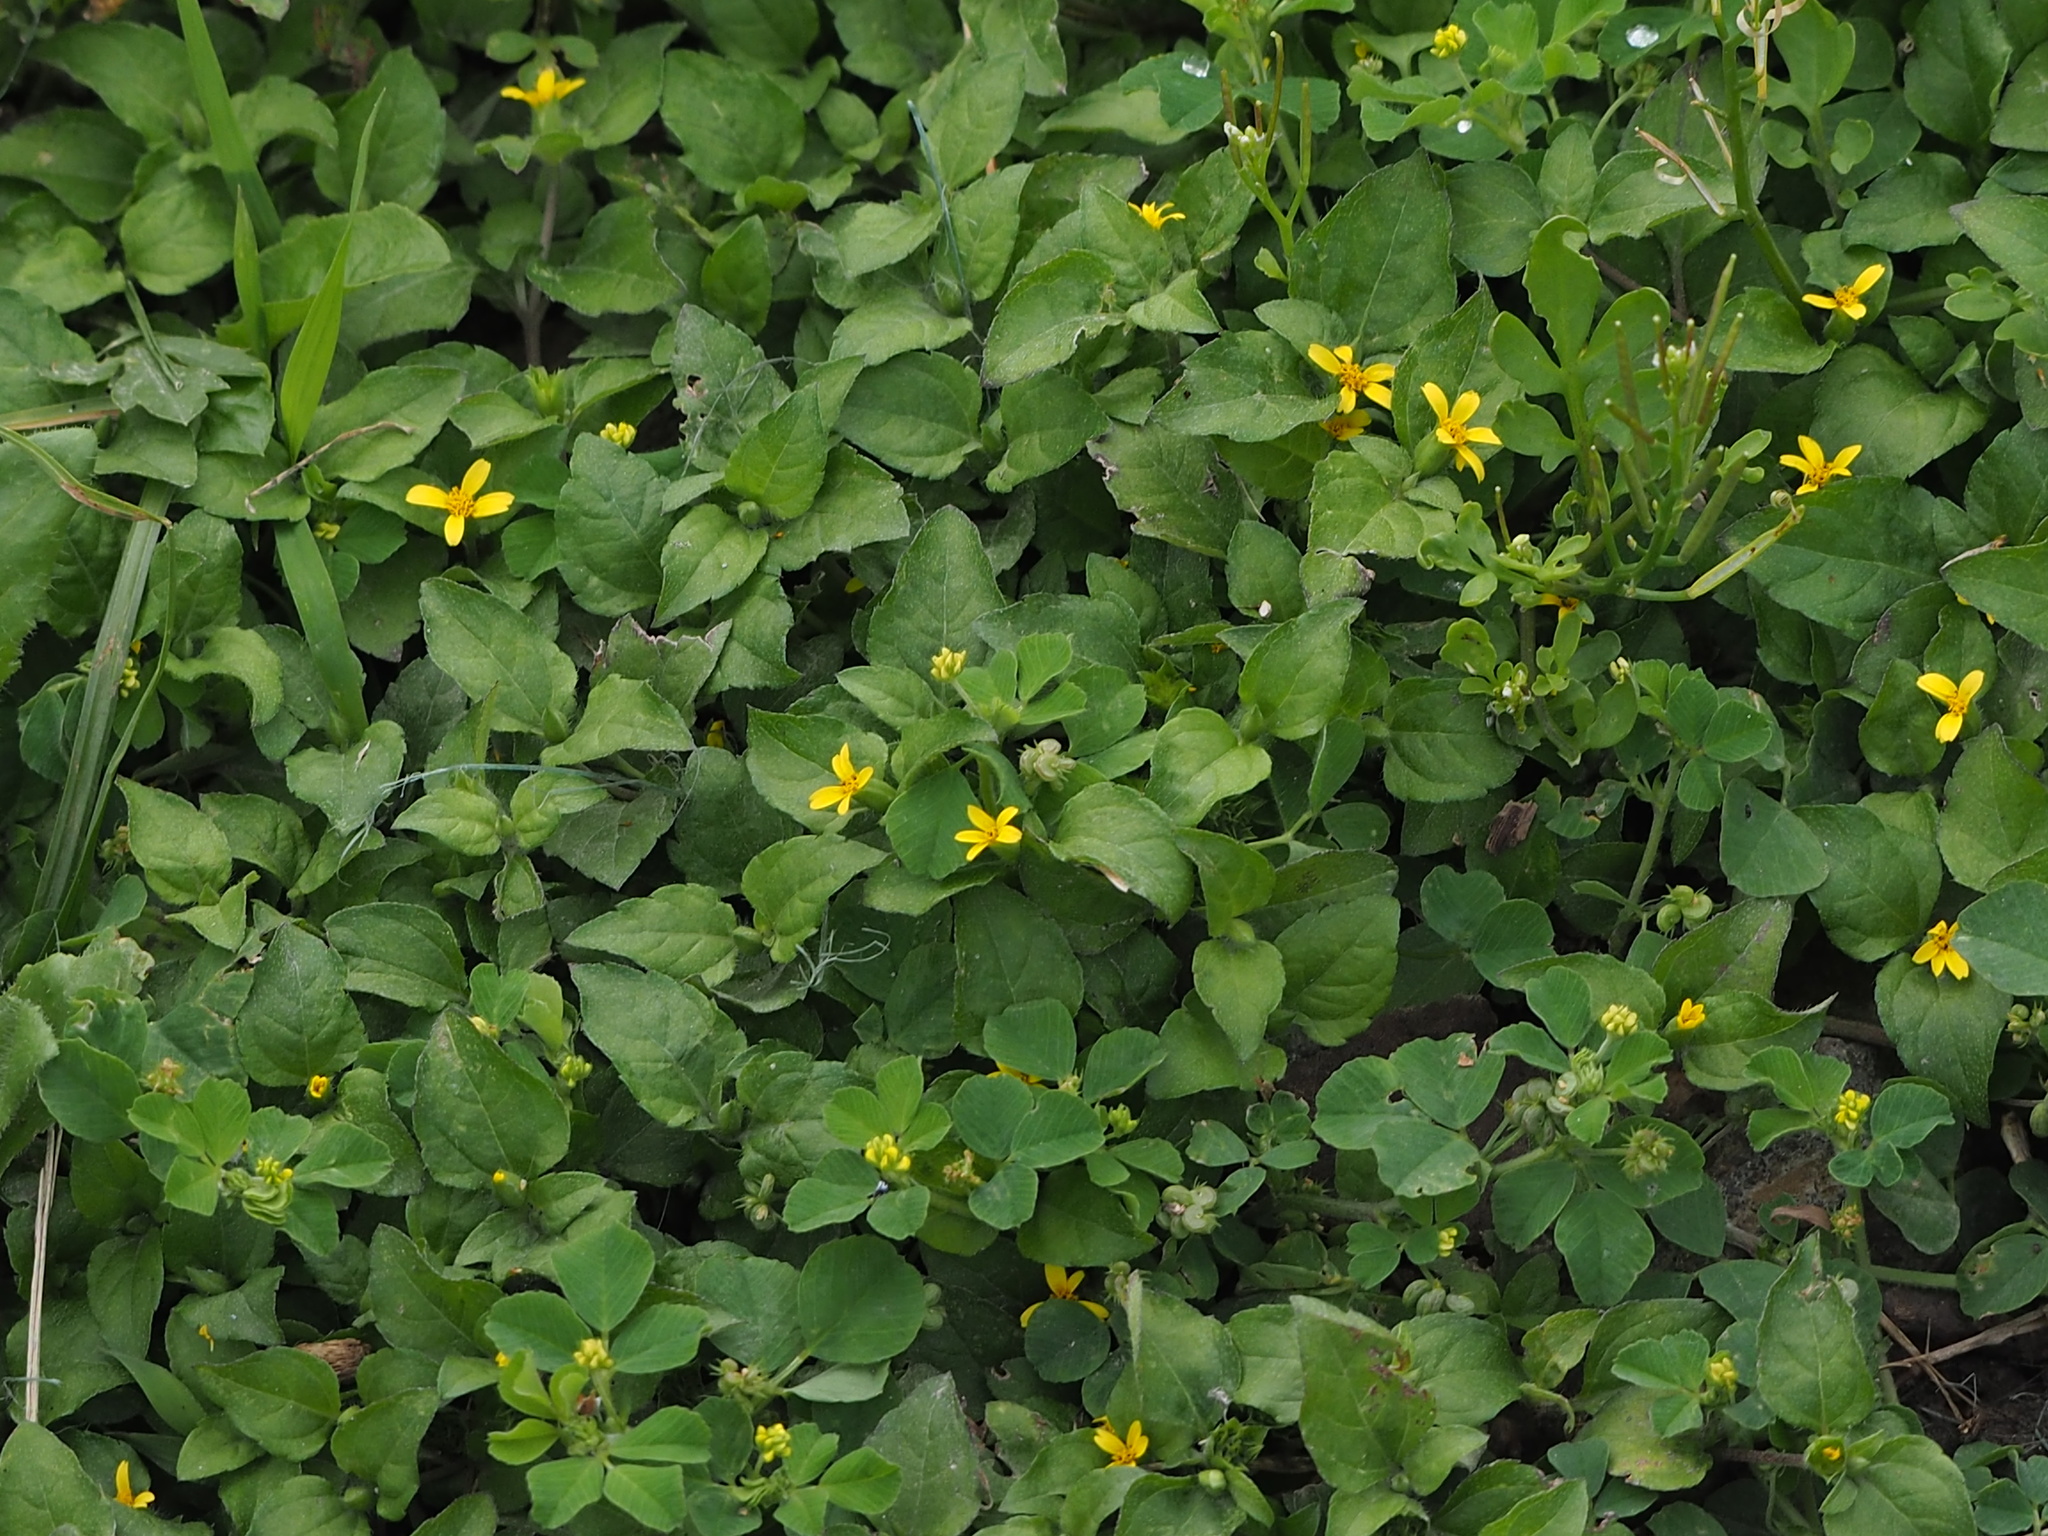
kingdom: Plantae
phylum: Tracheophyta
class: Magnoliopsida
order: Asterales
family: Asteraceae
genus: Calyptocarpus
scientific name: Calyptocarpus vialis
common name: Straggler daisy
